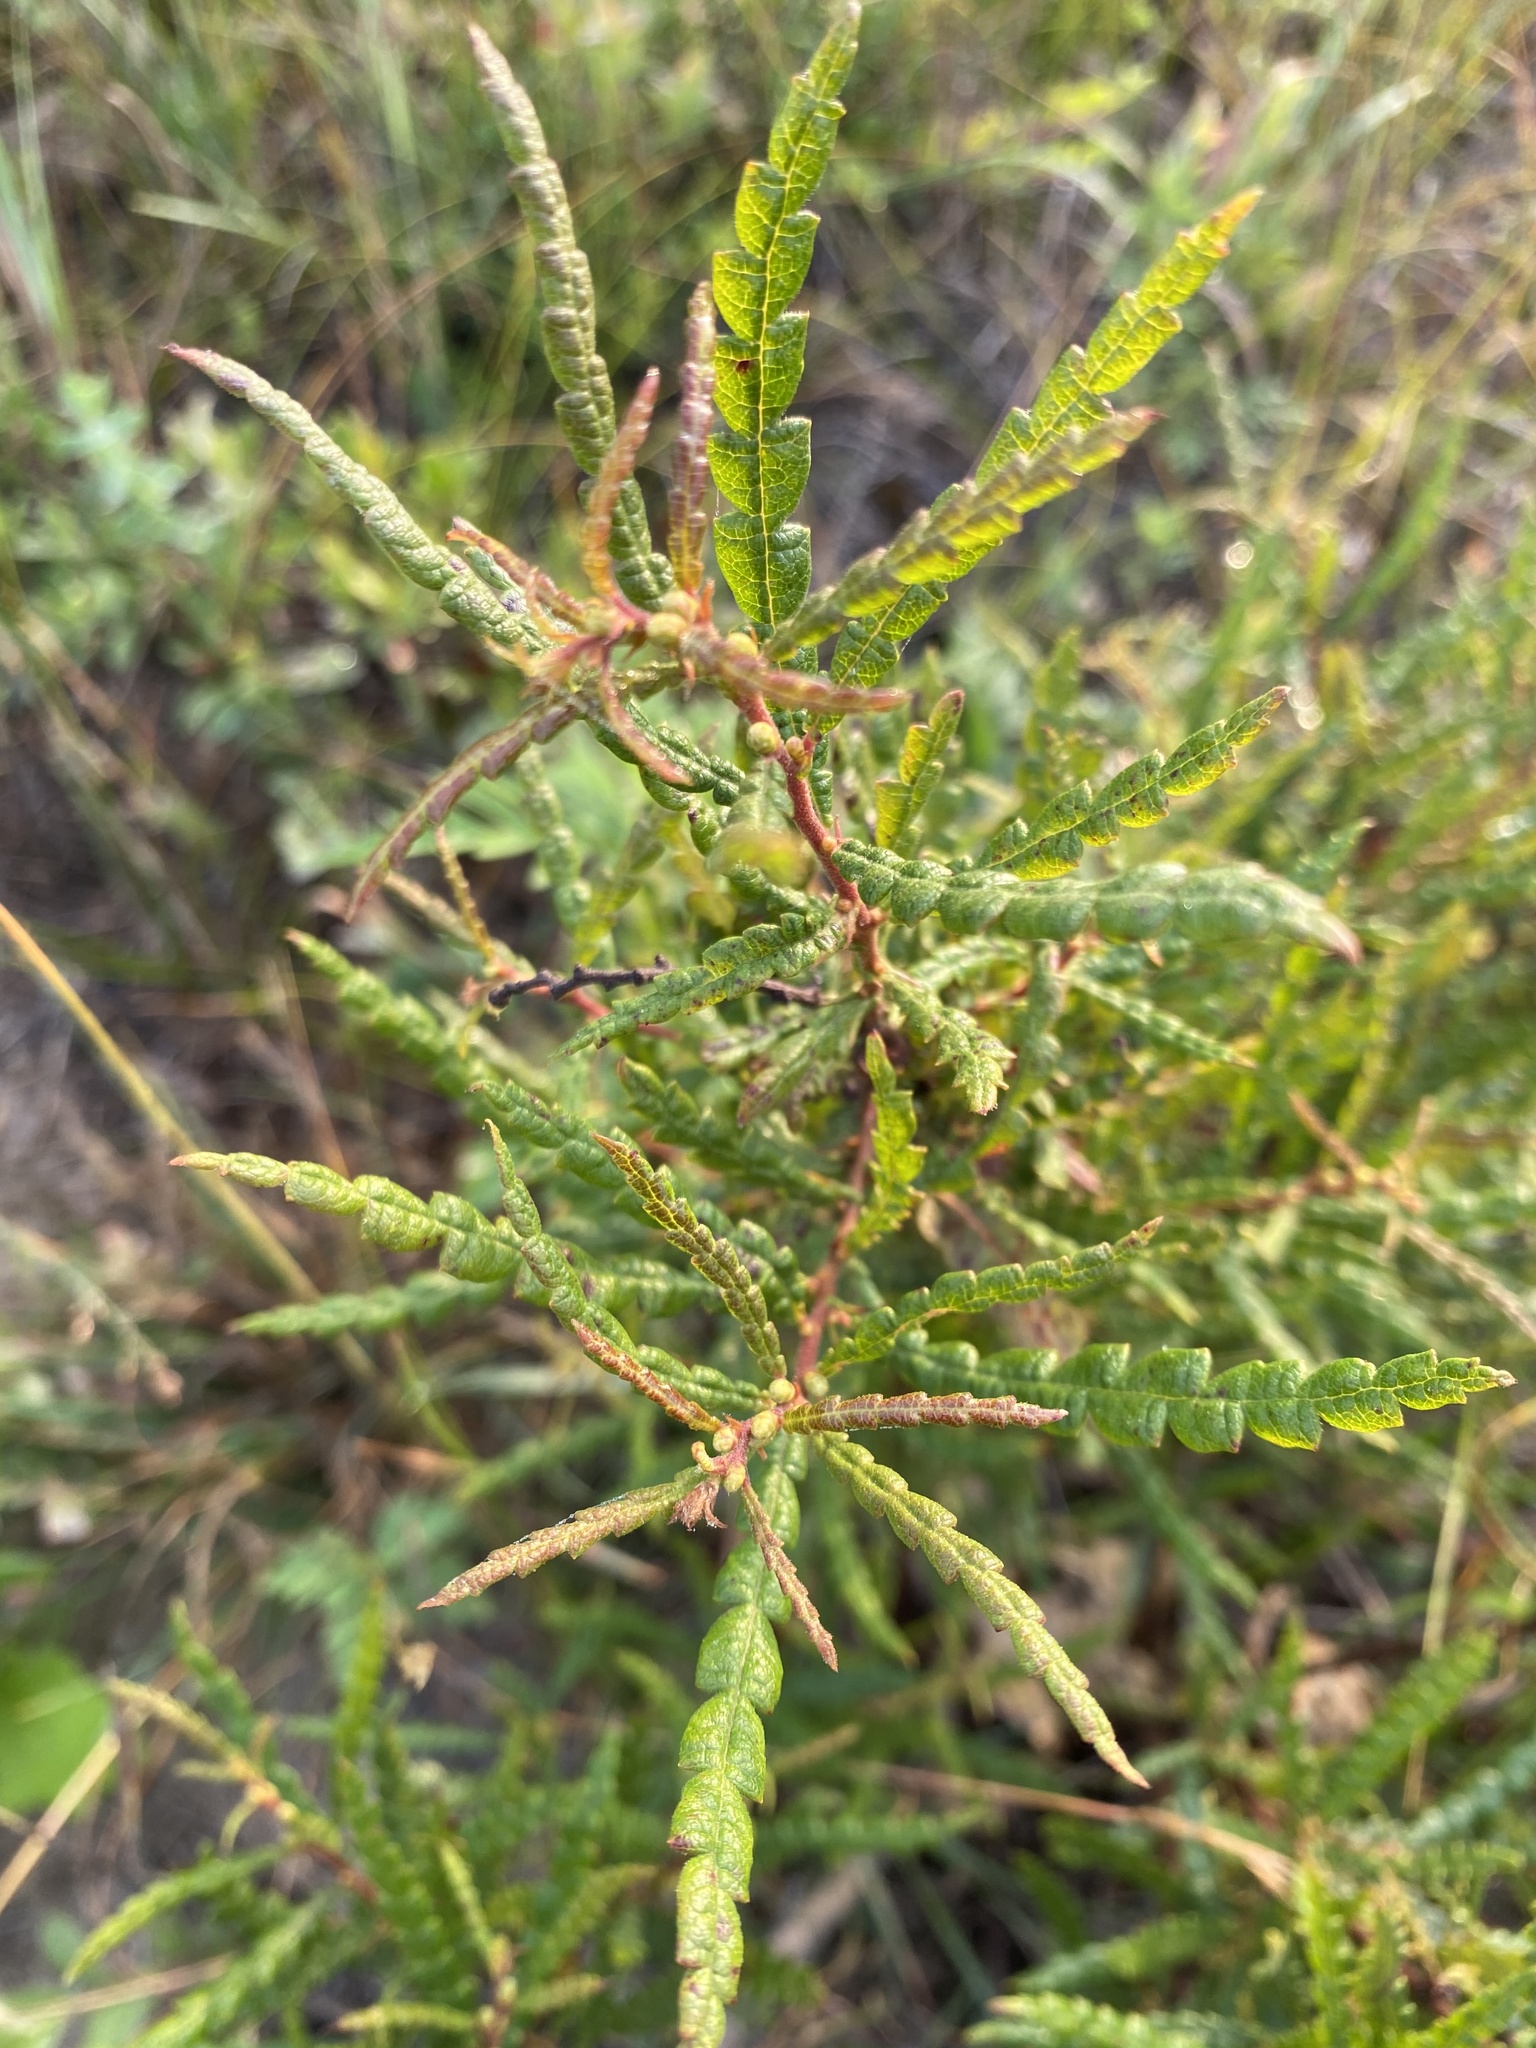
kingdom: Plantae
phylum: Tracheophyta
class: Magnoliopsida
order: Fagales
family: Myricaceae
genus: Comptonia
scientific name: Comptonia peregrina
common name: Sweet-fern
